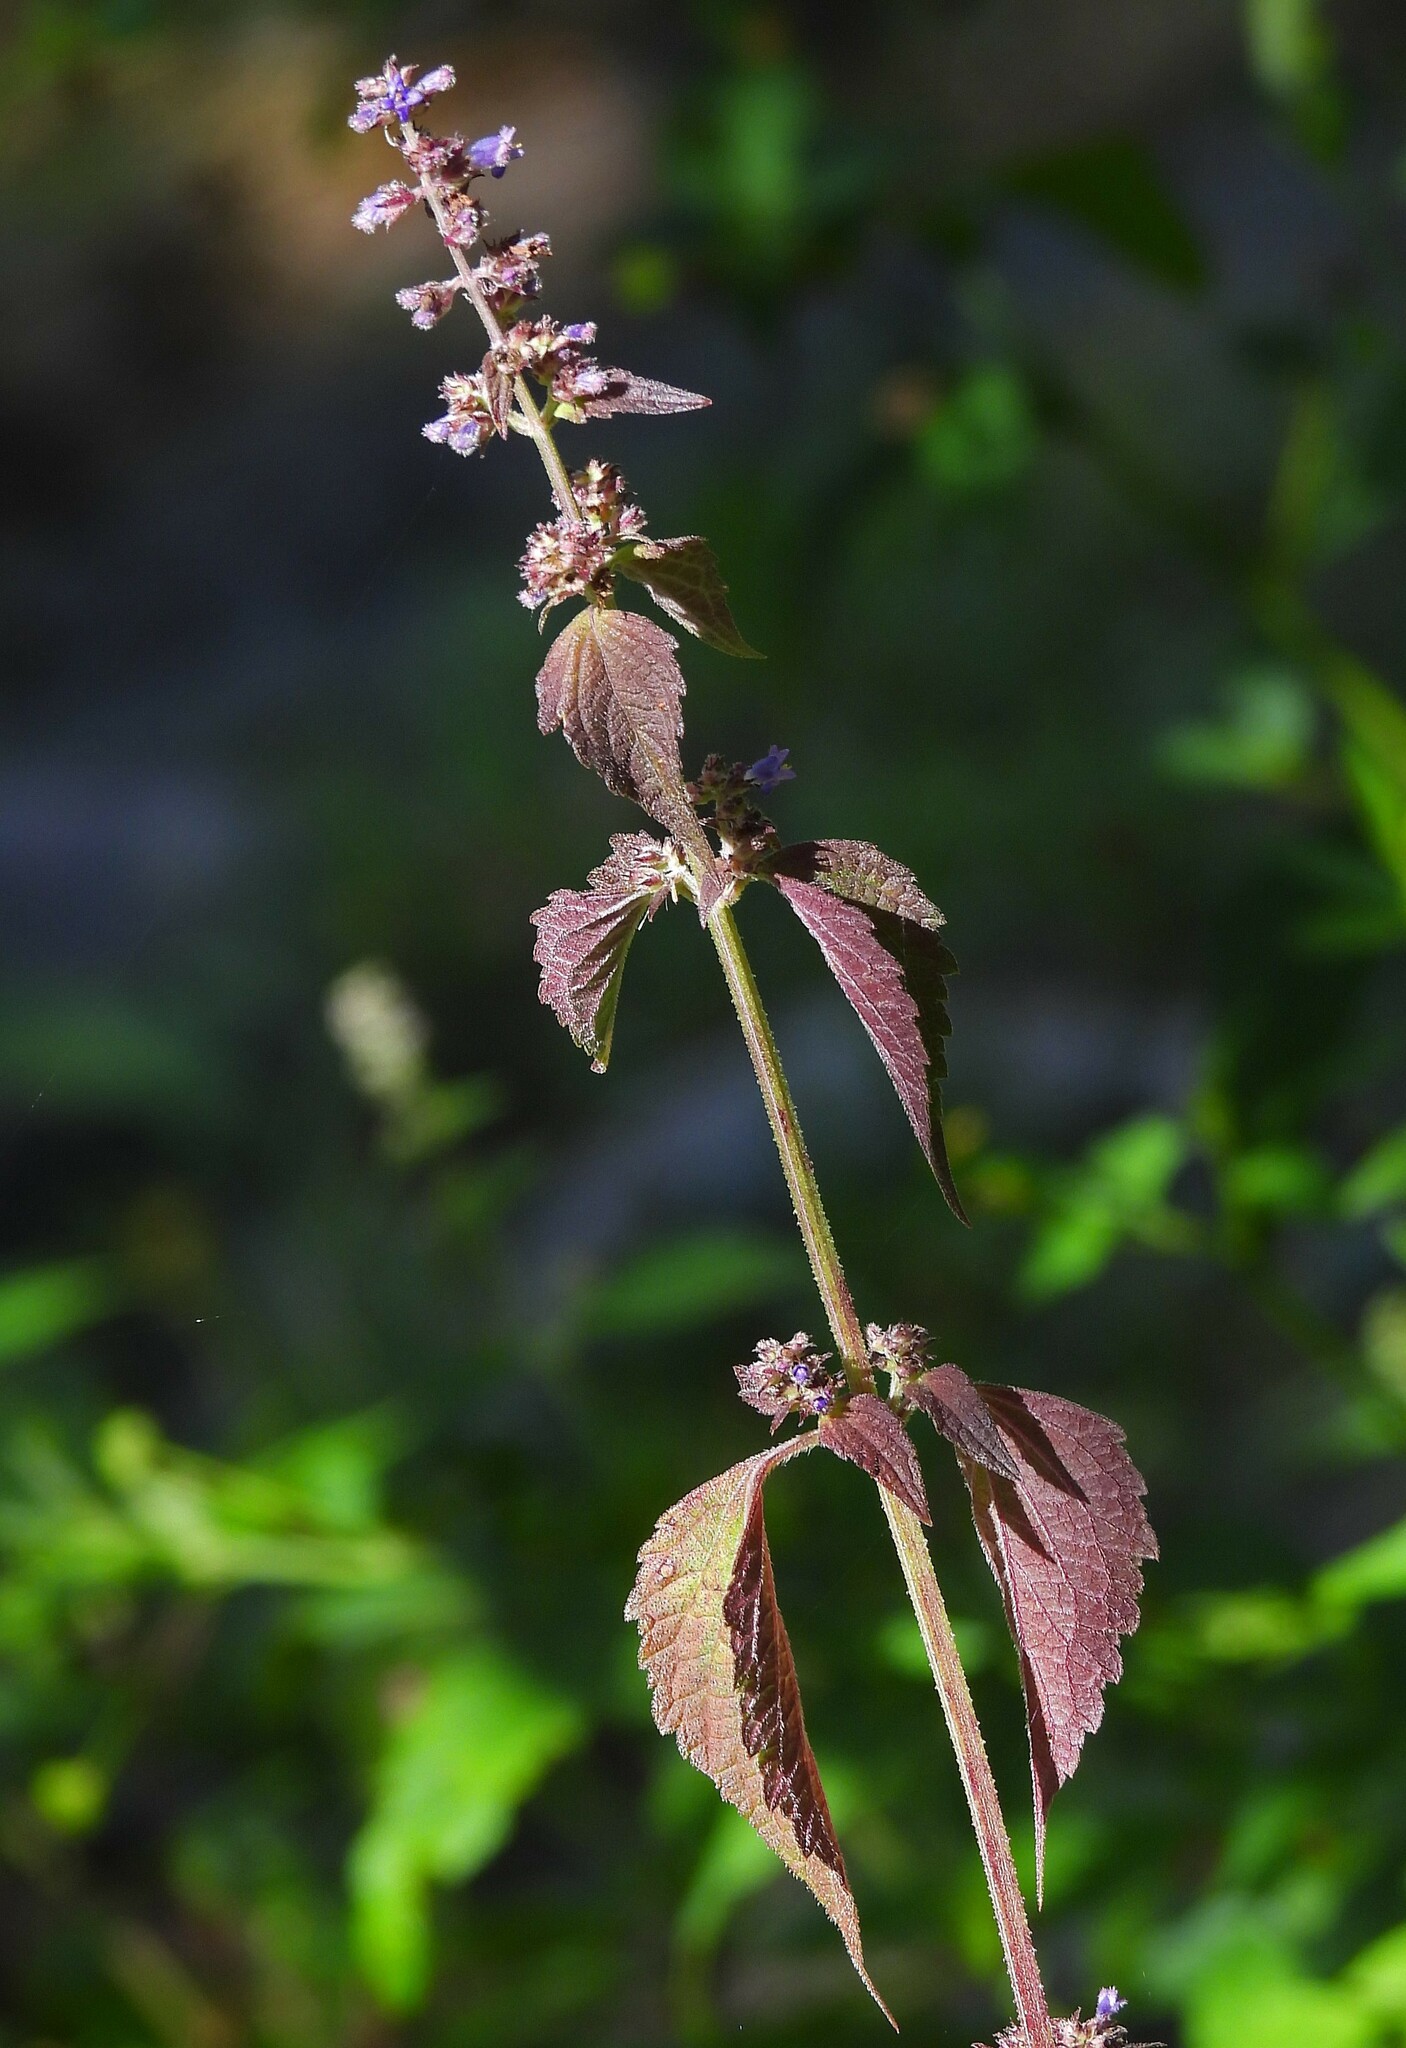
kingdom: Plantae
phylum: Tracheophyta
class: Magnoliopsida
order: Lamiales
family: Lamiaceae
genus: Cantinoa
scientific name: Cantinoa mutabilis
